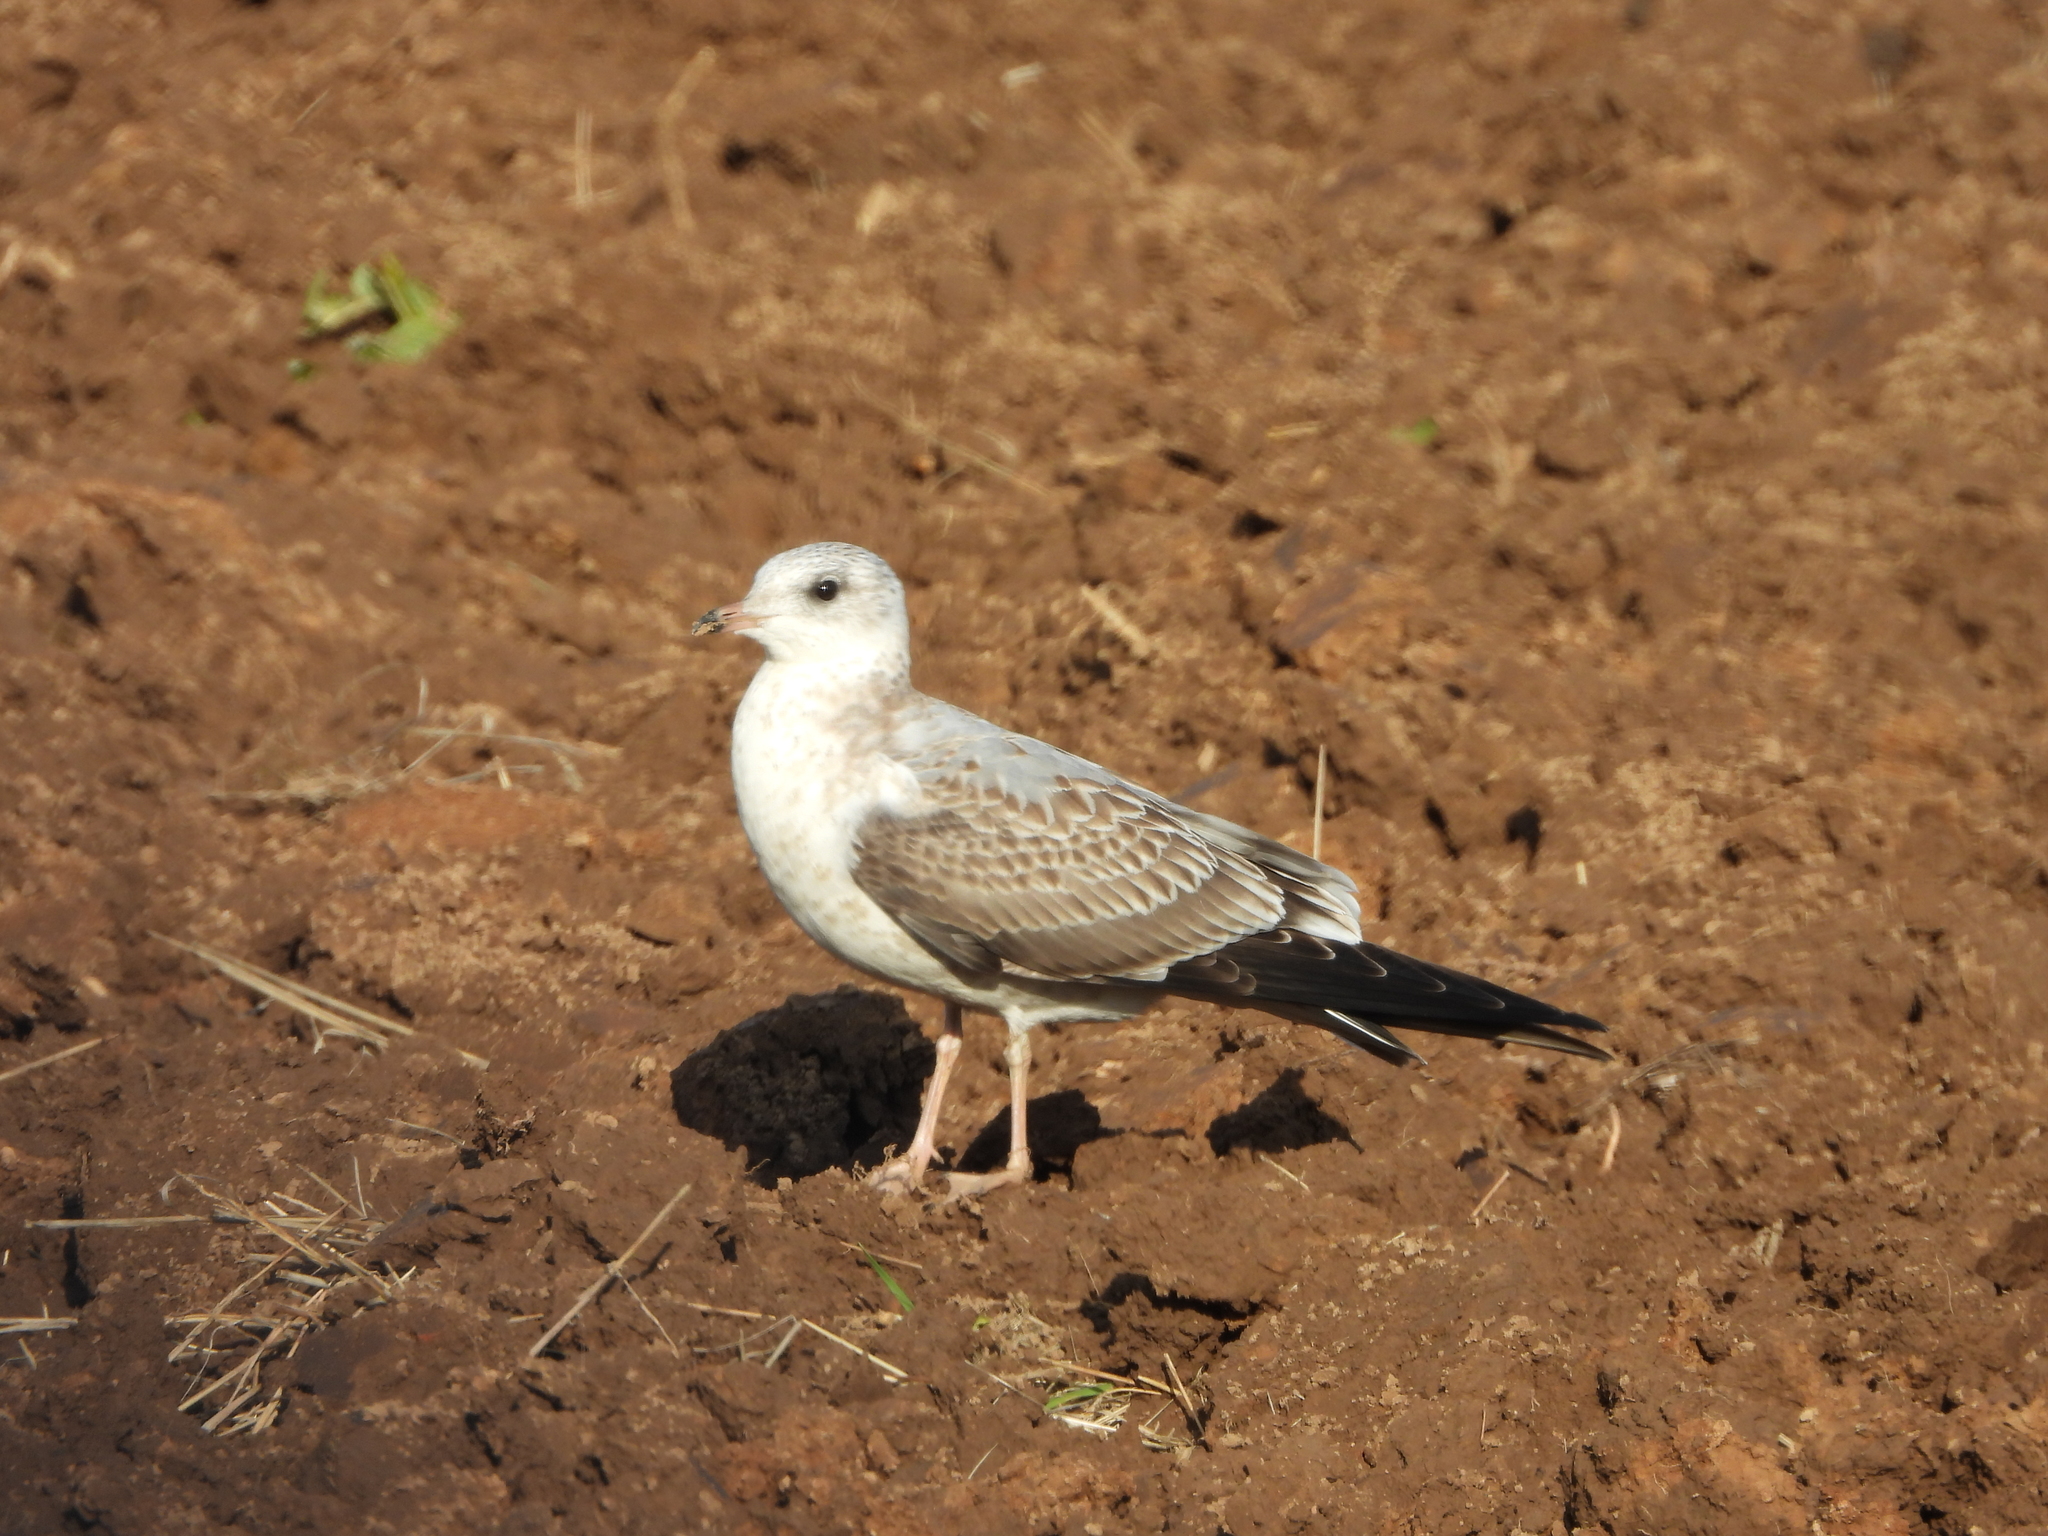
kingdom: Animalia
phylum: Chordata
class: Aves
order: Charadriiformes
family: Laridae
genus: Larus
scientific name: Larus canus
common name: Mew gull
